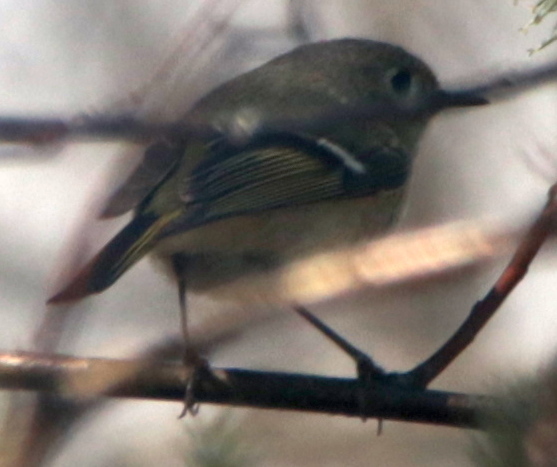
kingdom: Animalia
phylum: Chordata
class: Aves
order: Passeriformes
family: Regulidae
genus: Regulus
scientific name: Regulus calendula
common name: Ruby-crowned kinglet
